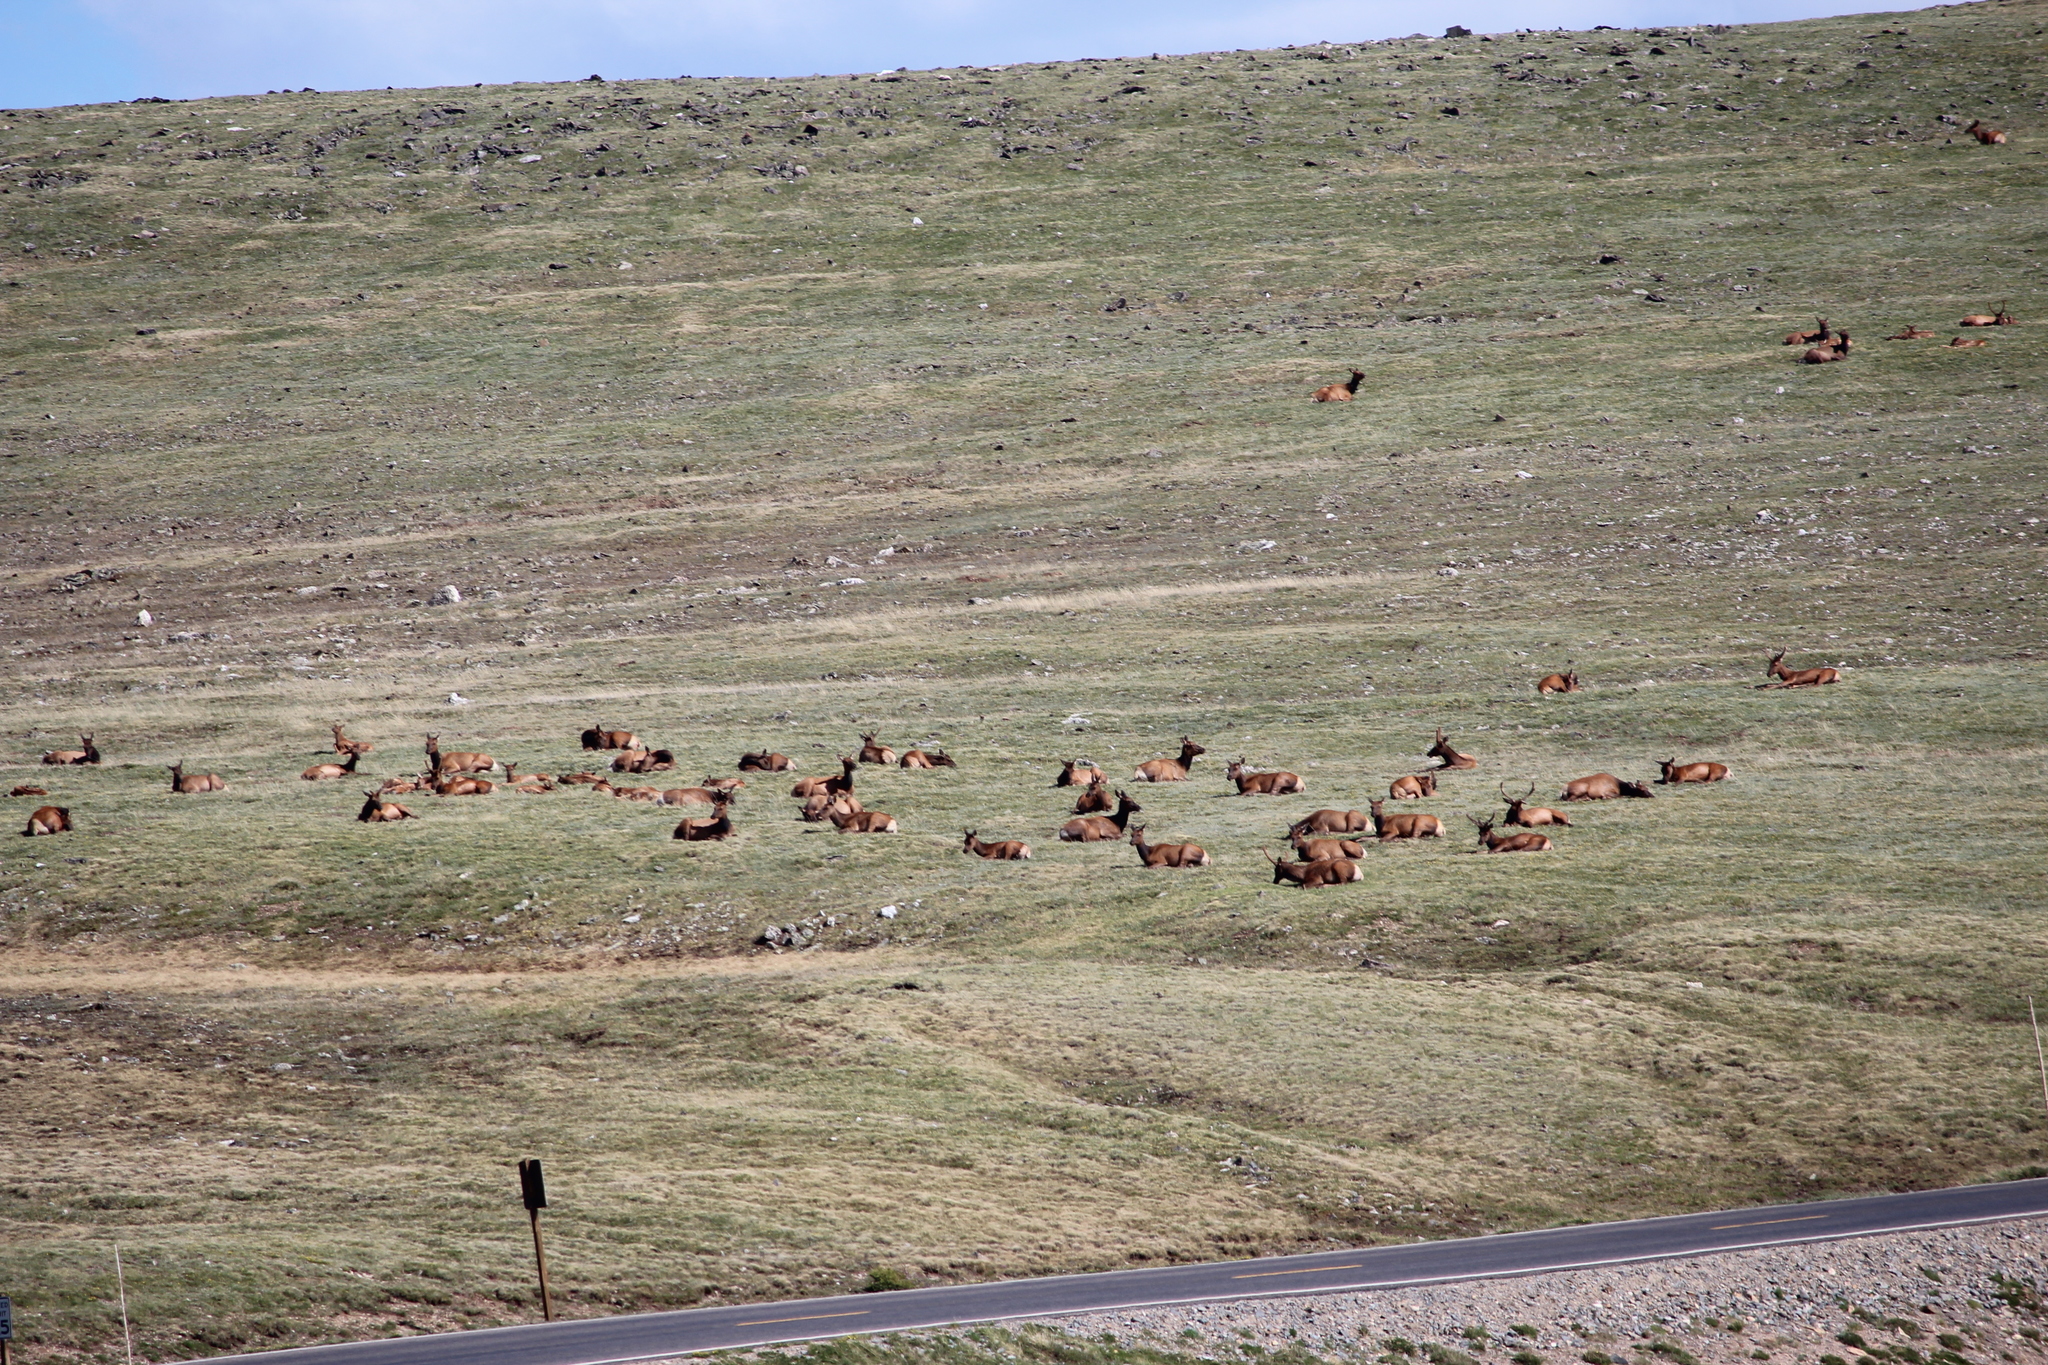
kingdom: Animalia
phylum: Chordata
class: Mammalia
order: Artiodactyla
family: Cervidae
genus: Cervus
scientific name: Cervus elaphus
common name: Red deer
